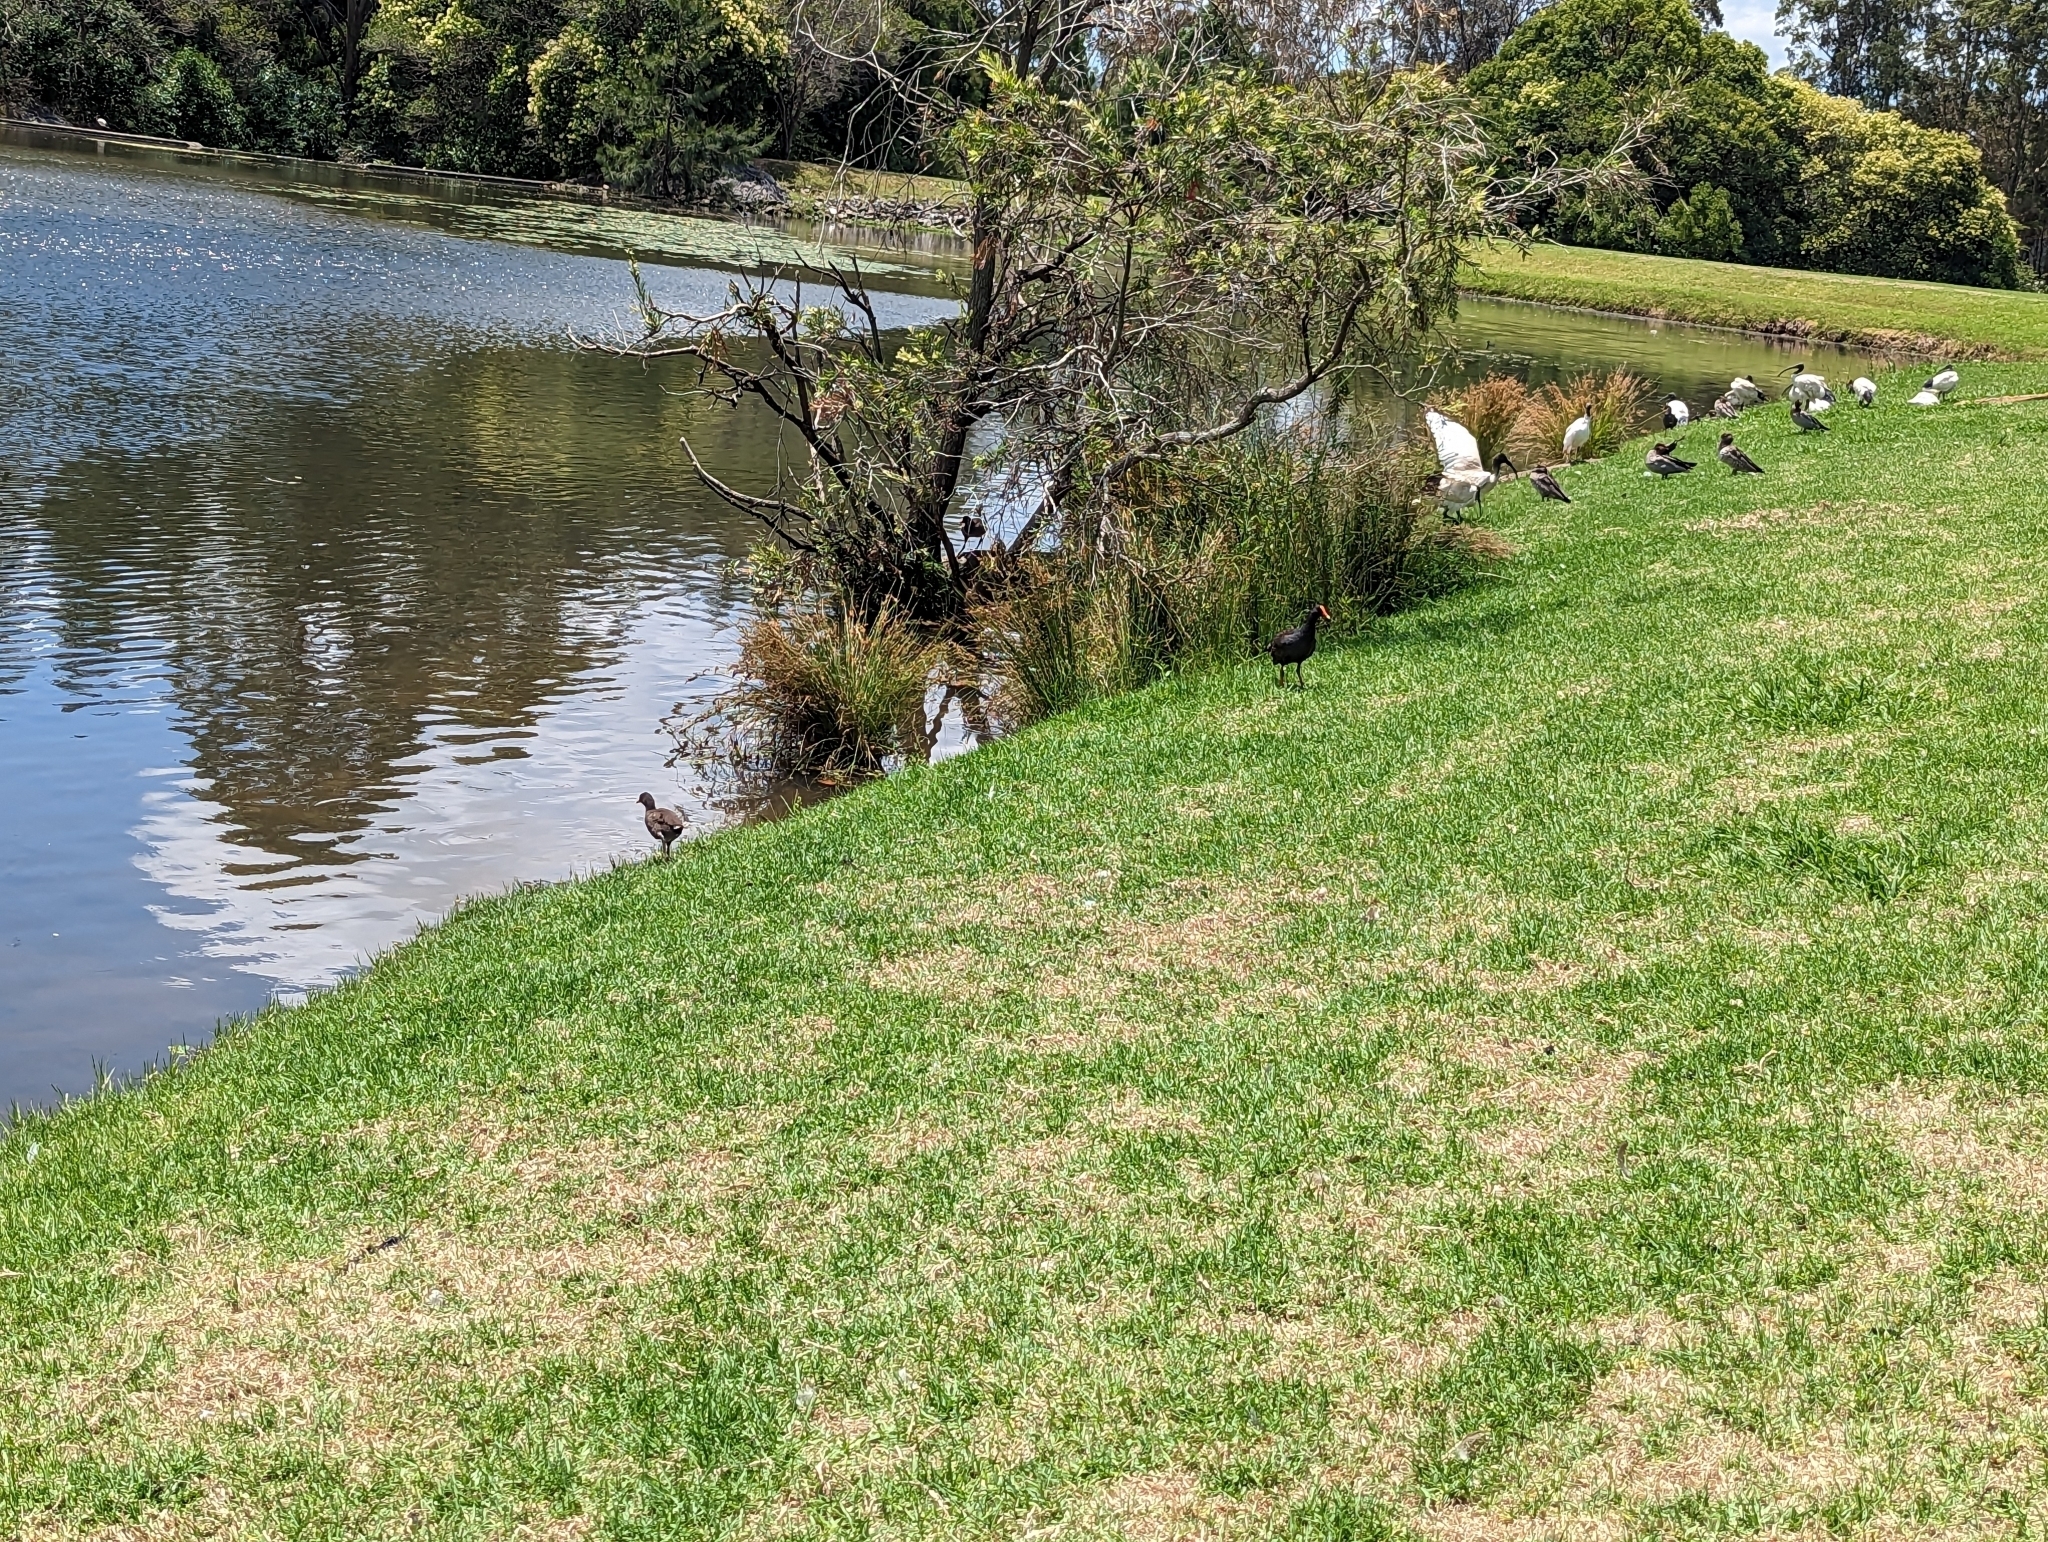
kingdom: Animalia
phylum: Chordata
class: Aves
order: Gruiformes
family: Rallidae
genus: Gallinula
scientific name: Gallinula tenebrosa
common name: Dusky moorhen
